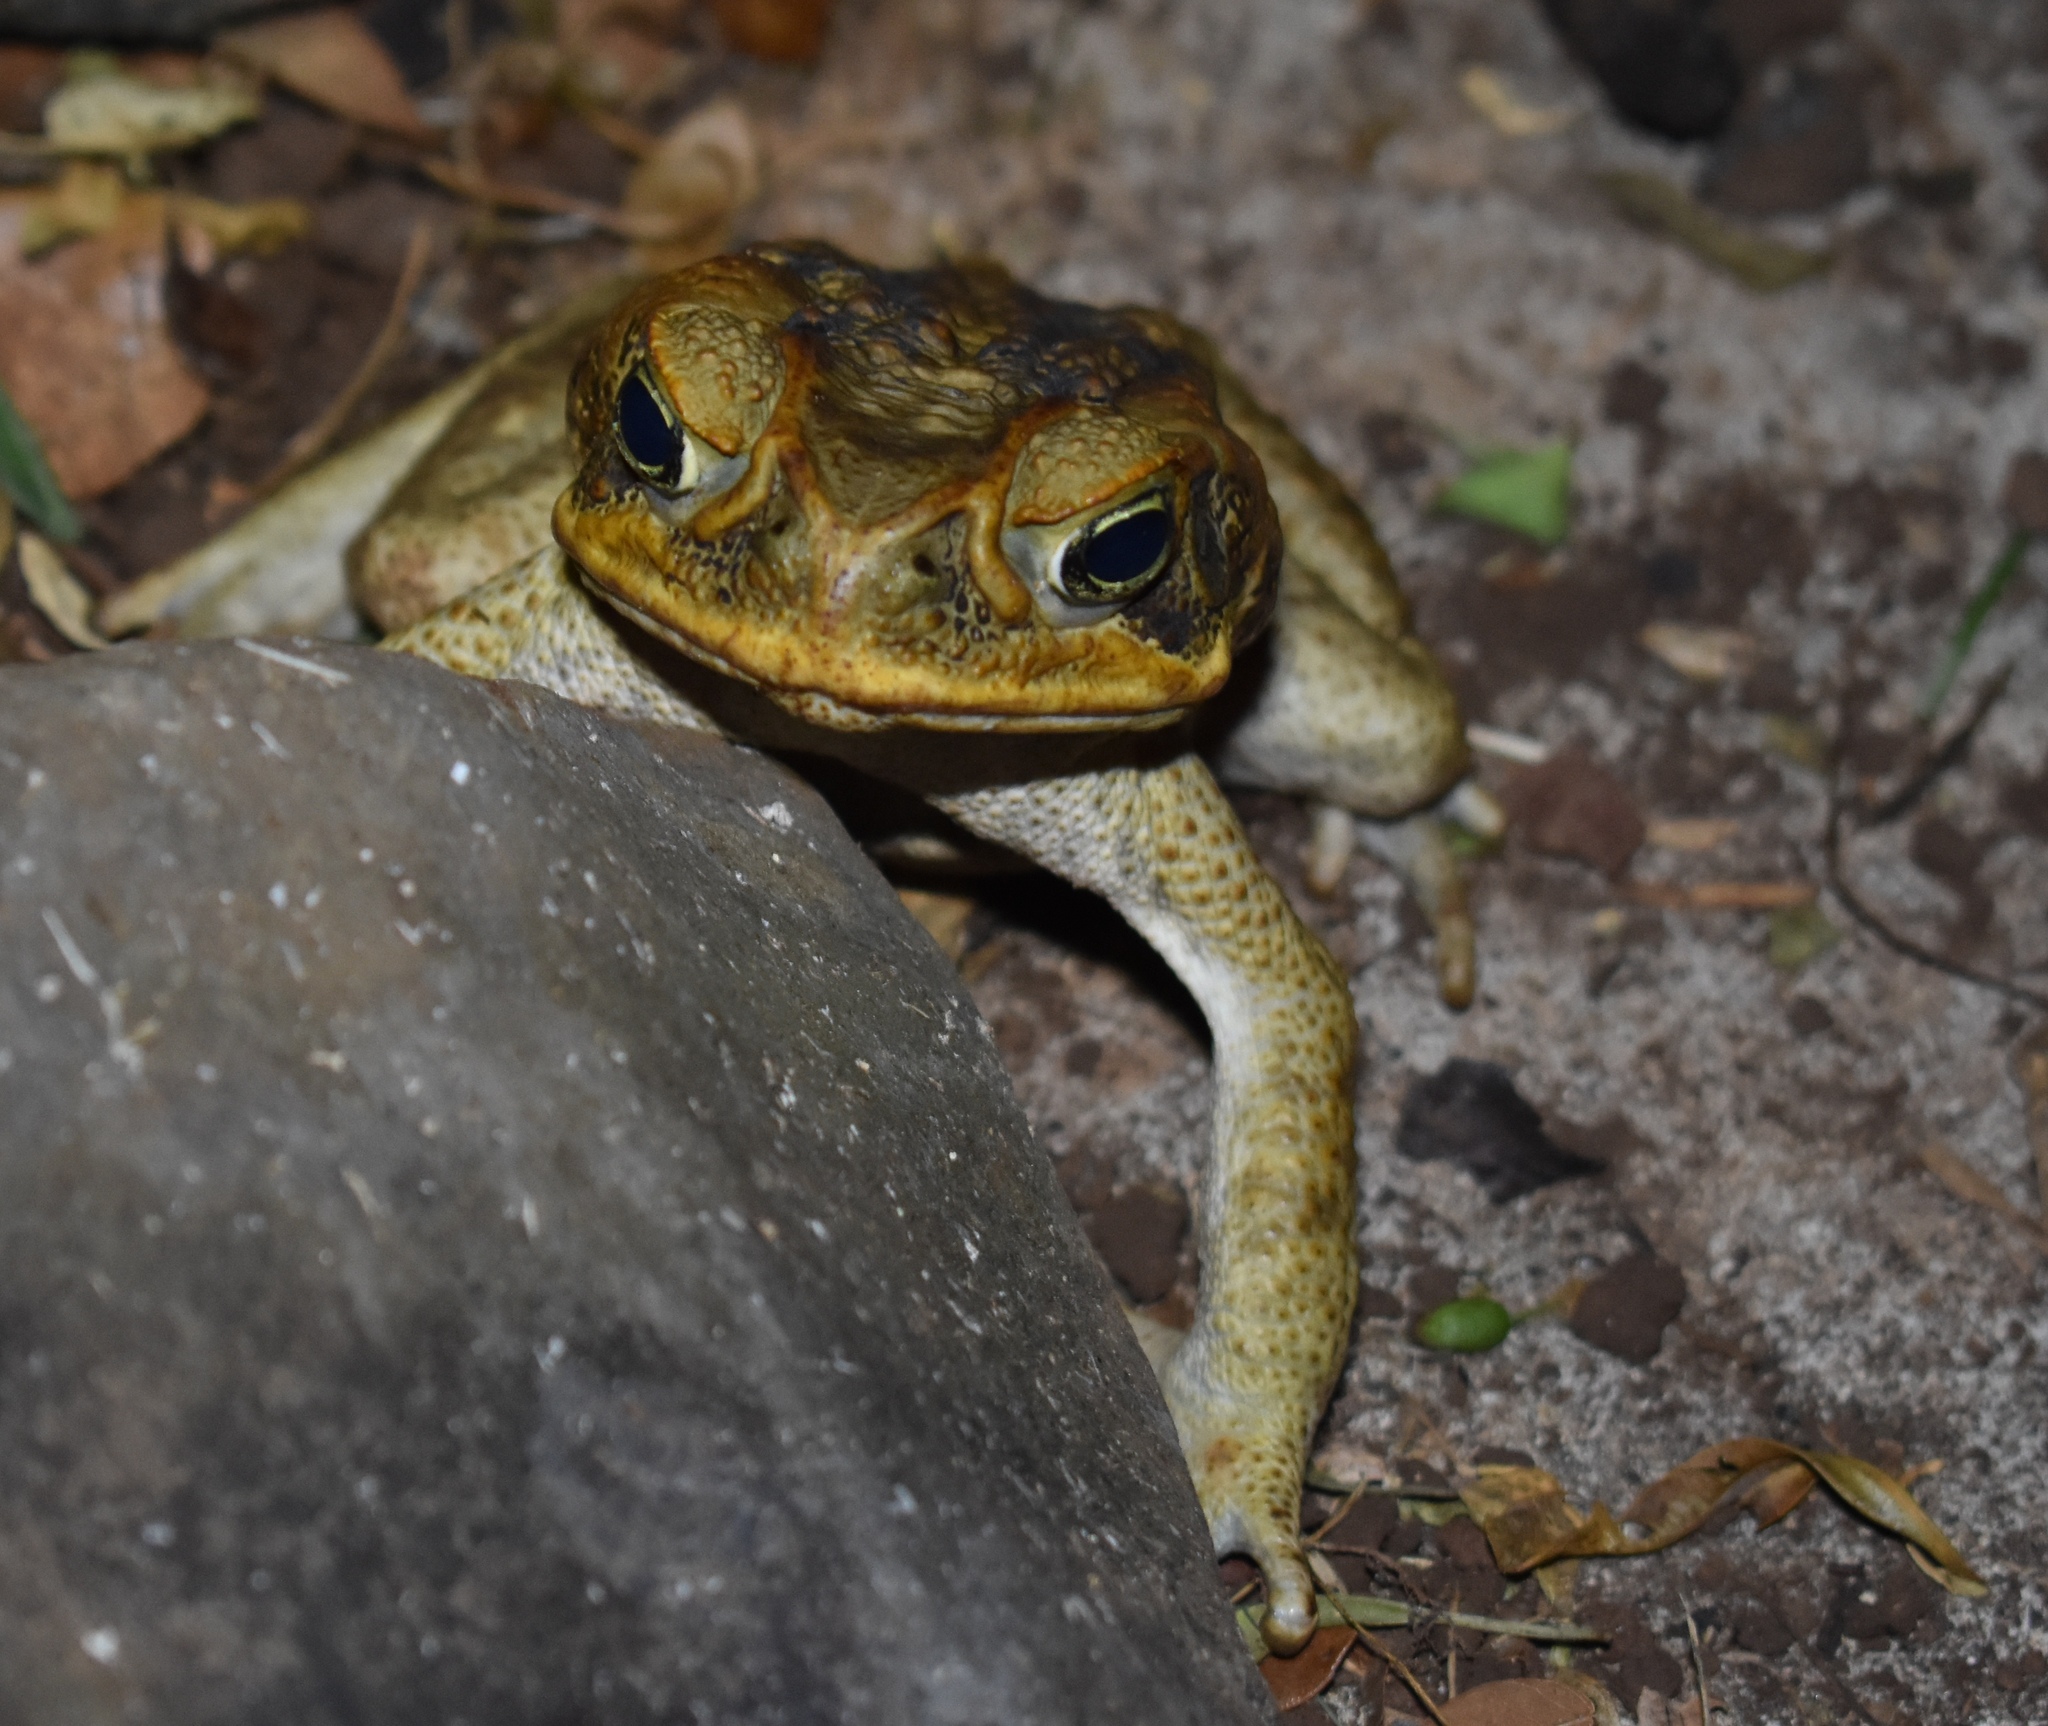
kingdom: Animalia
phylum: Chordata
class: Amphibia
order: Anura
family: Bufonidae
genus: Rhinella
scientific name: Rhinella marina
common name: Cane toad
